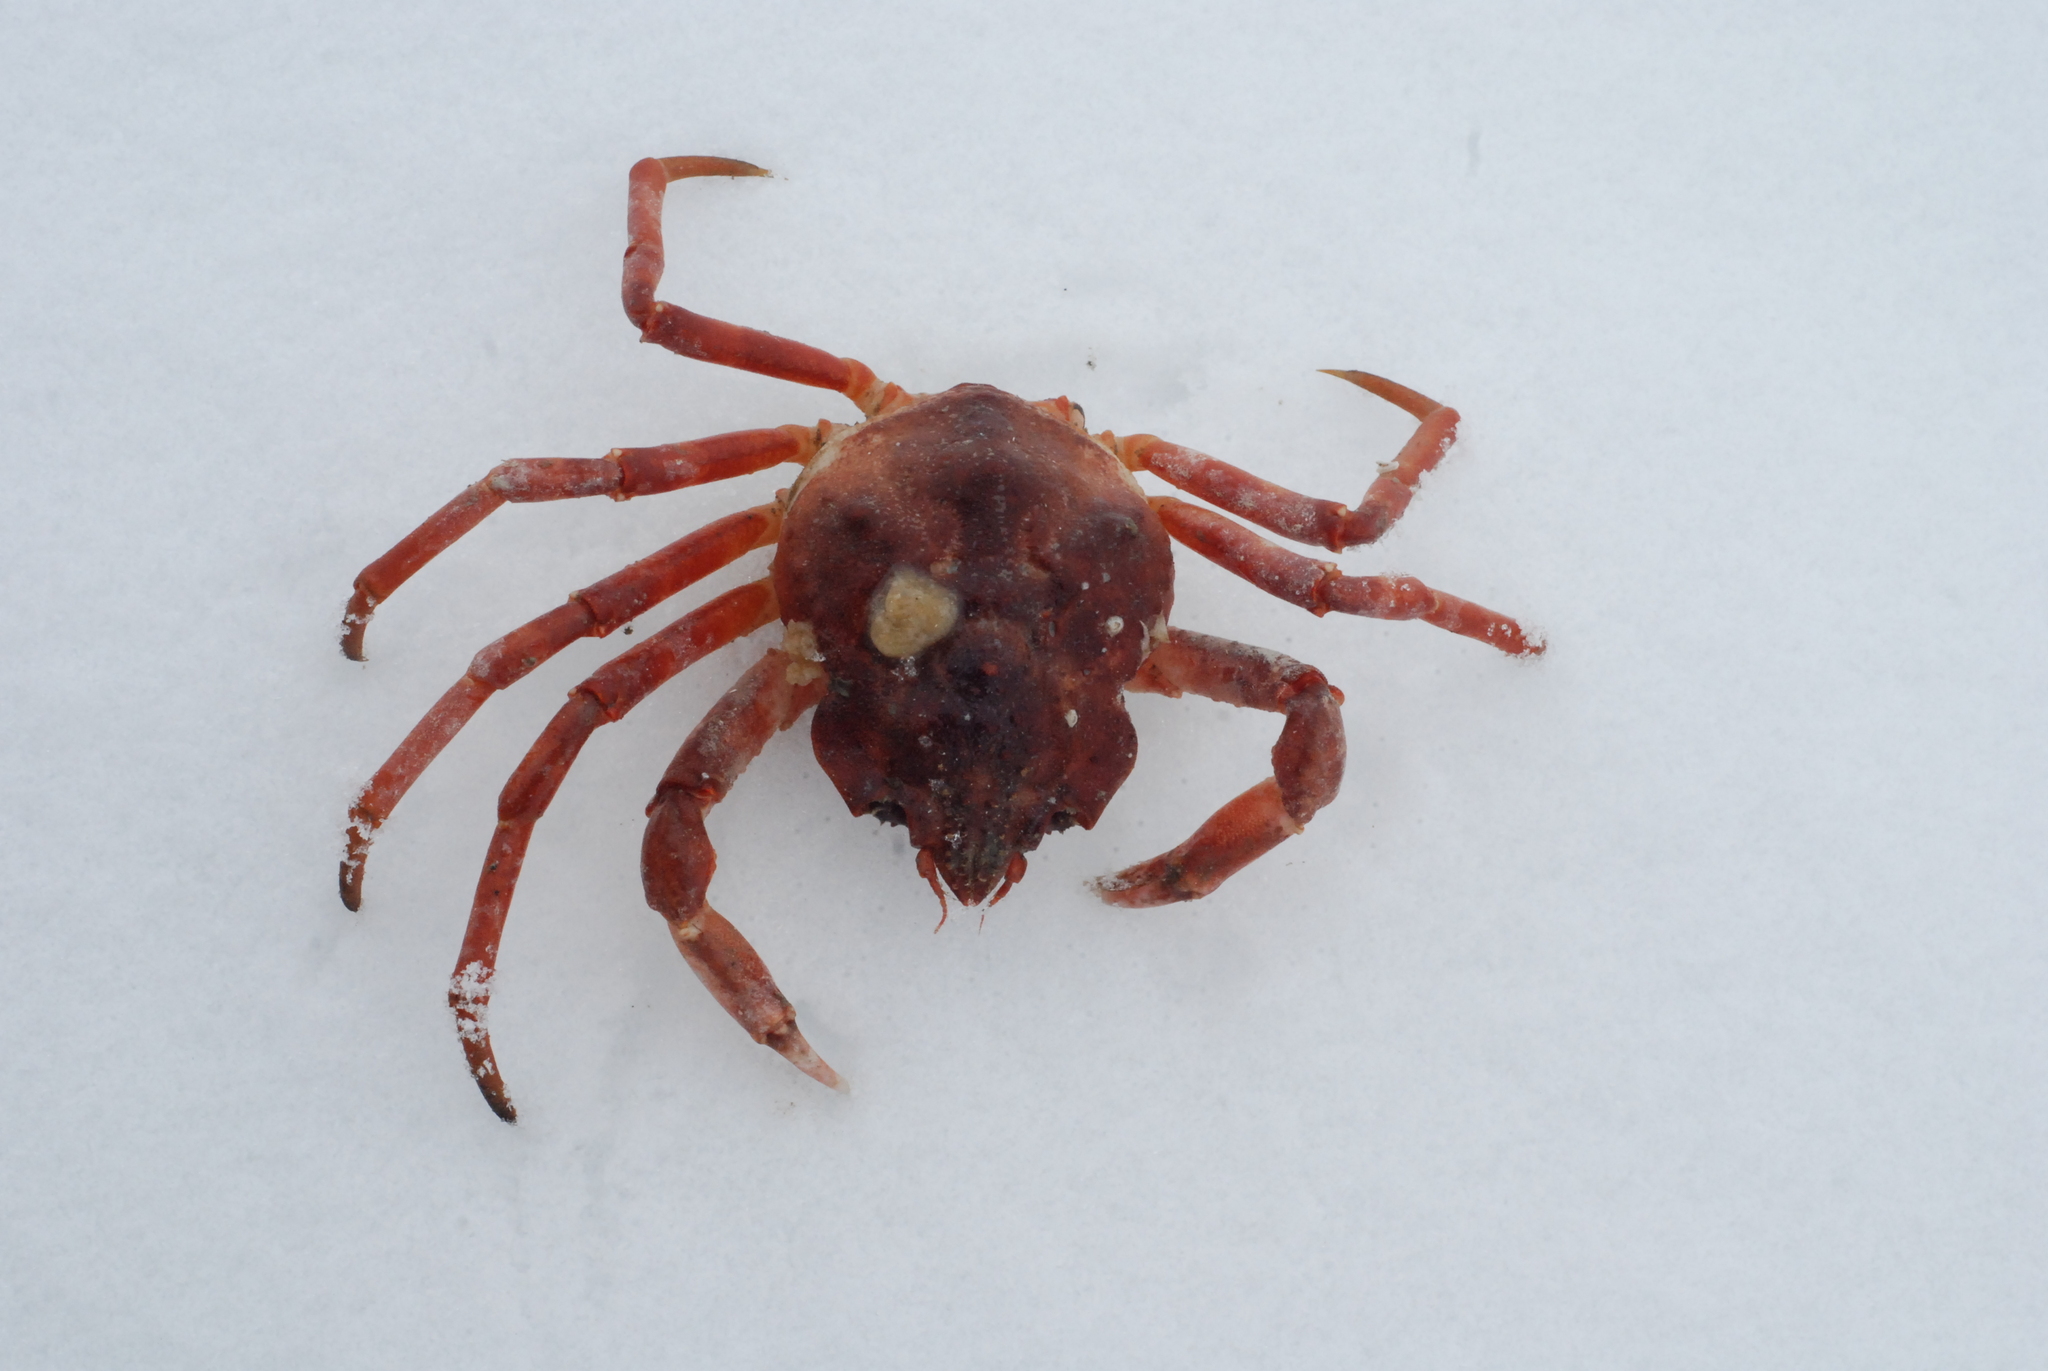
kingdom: Animalia
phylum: Arthropoda
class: Malacostraca
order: Decapoda
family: Oregoniidae
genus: Hyas
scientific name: Hyas alutaceus
